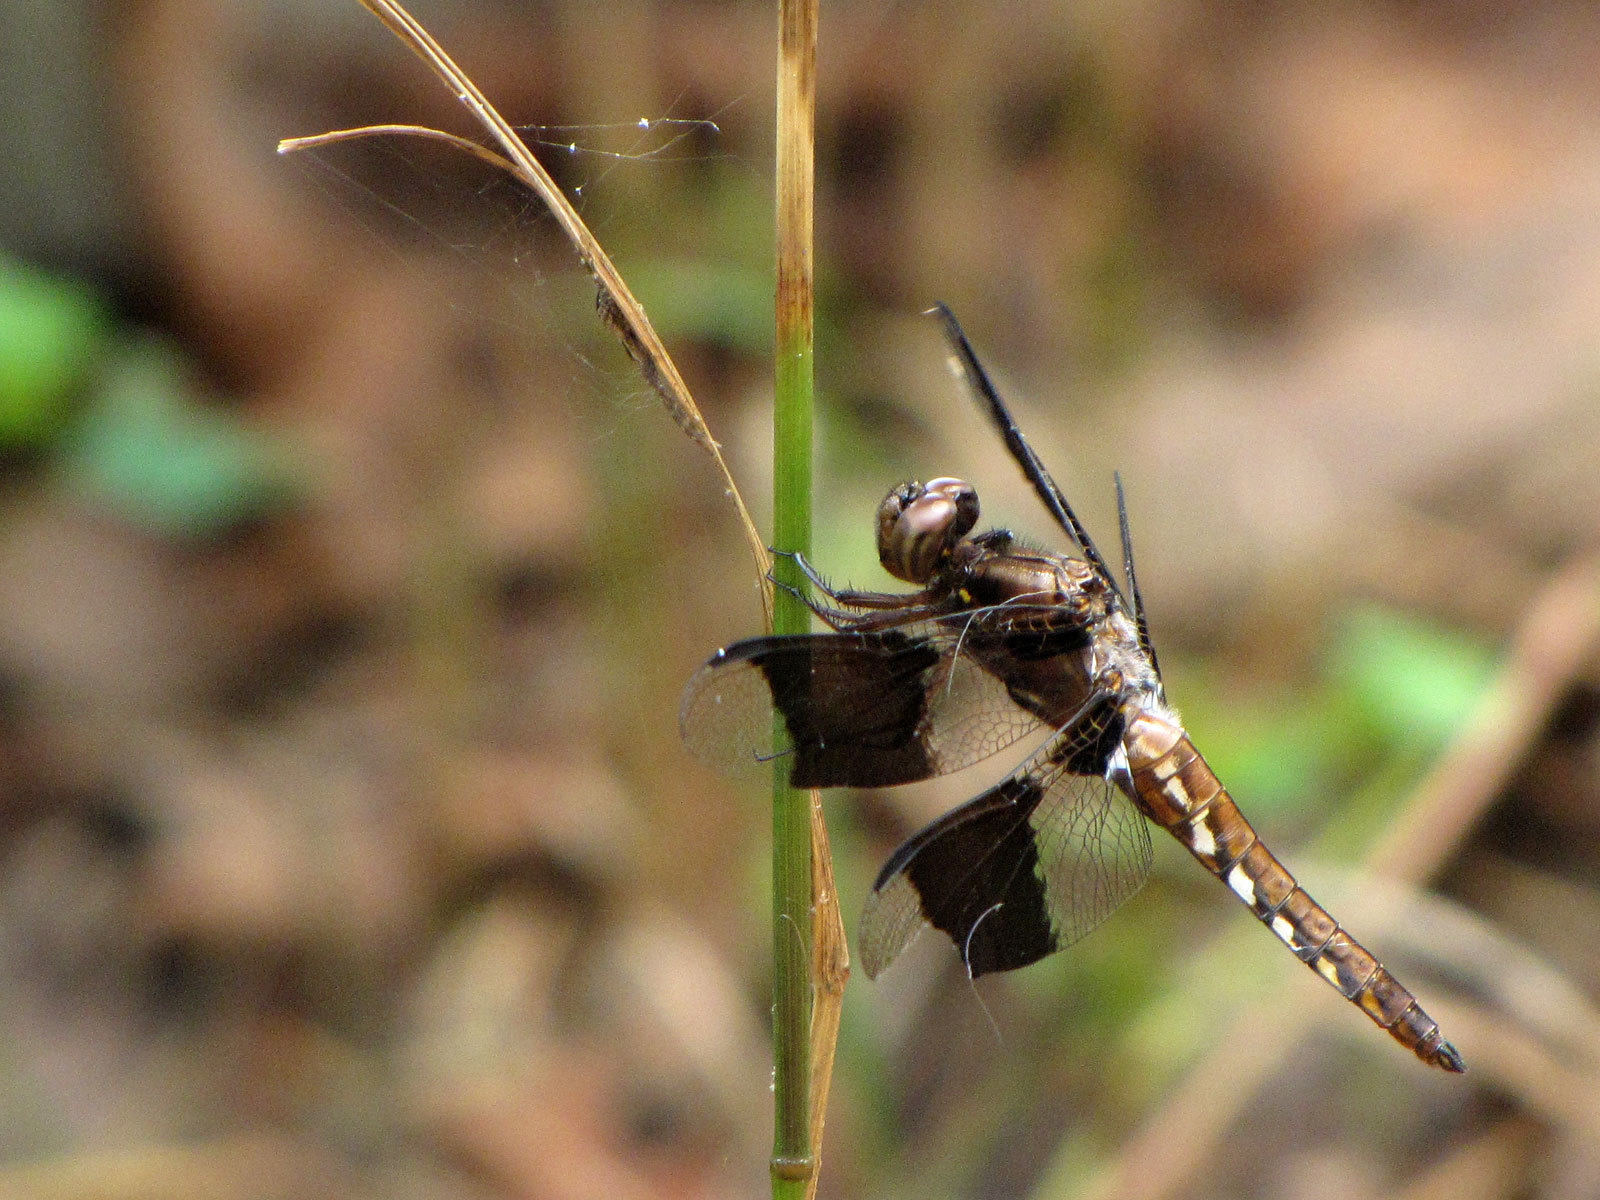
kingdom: Animalia
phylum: Arthropoda
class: Insecta
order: Odonata
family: Libellulidae
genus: Plathemis
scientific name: Plathemis lydia
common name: Common whitetail
